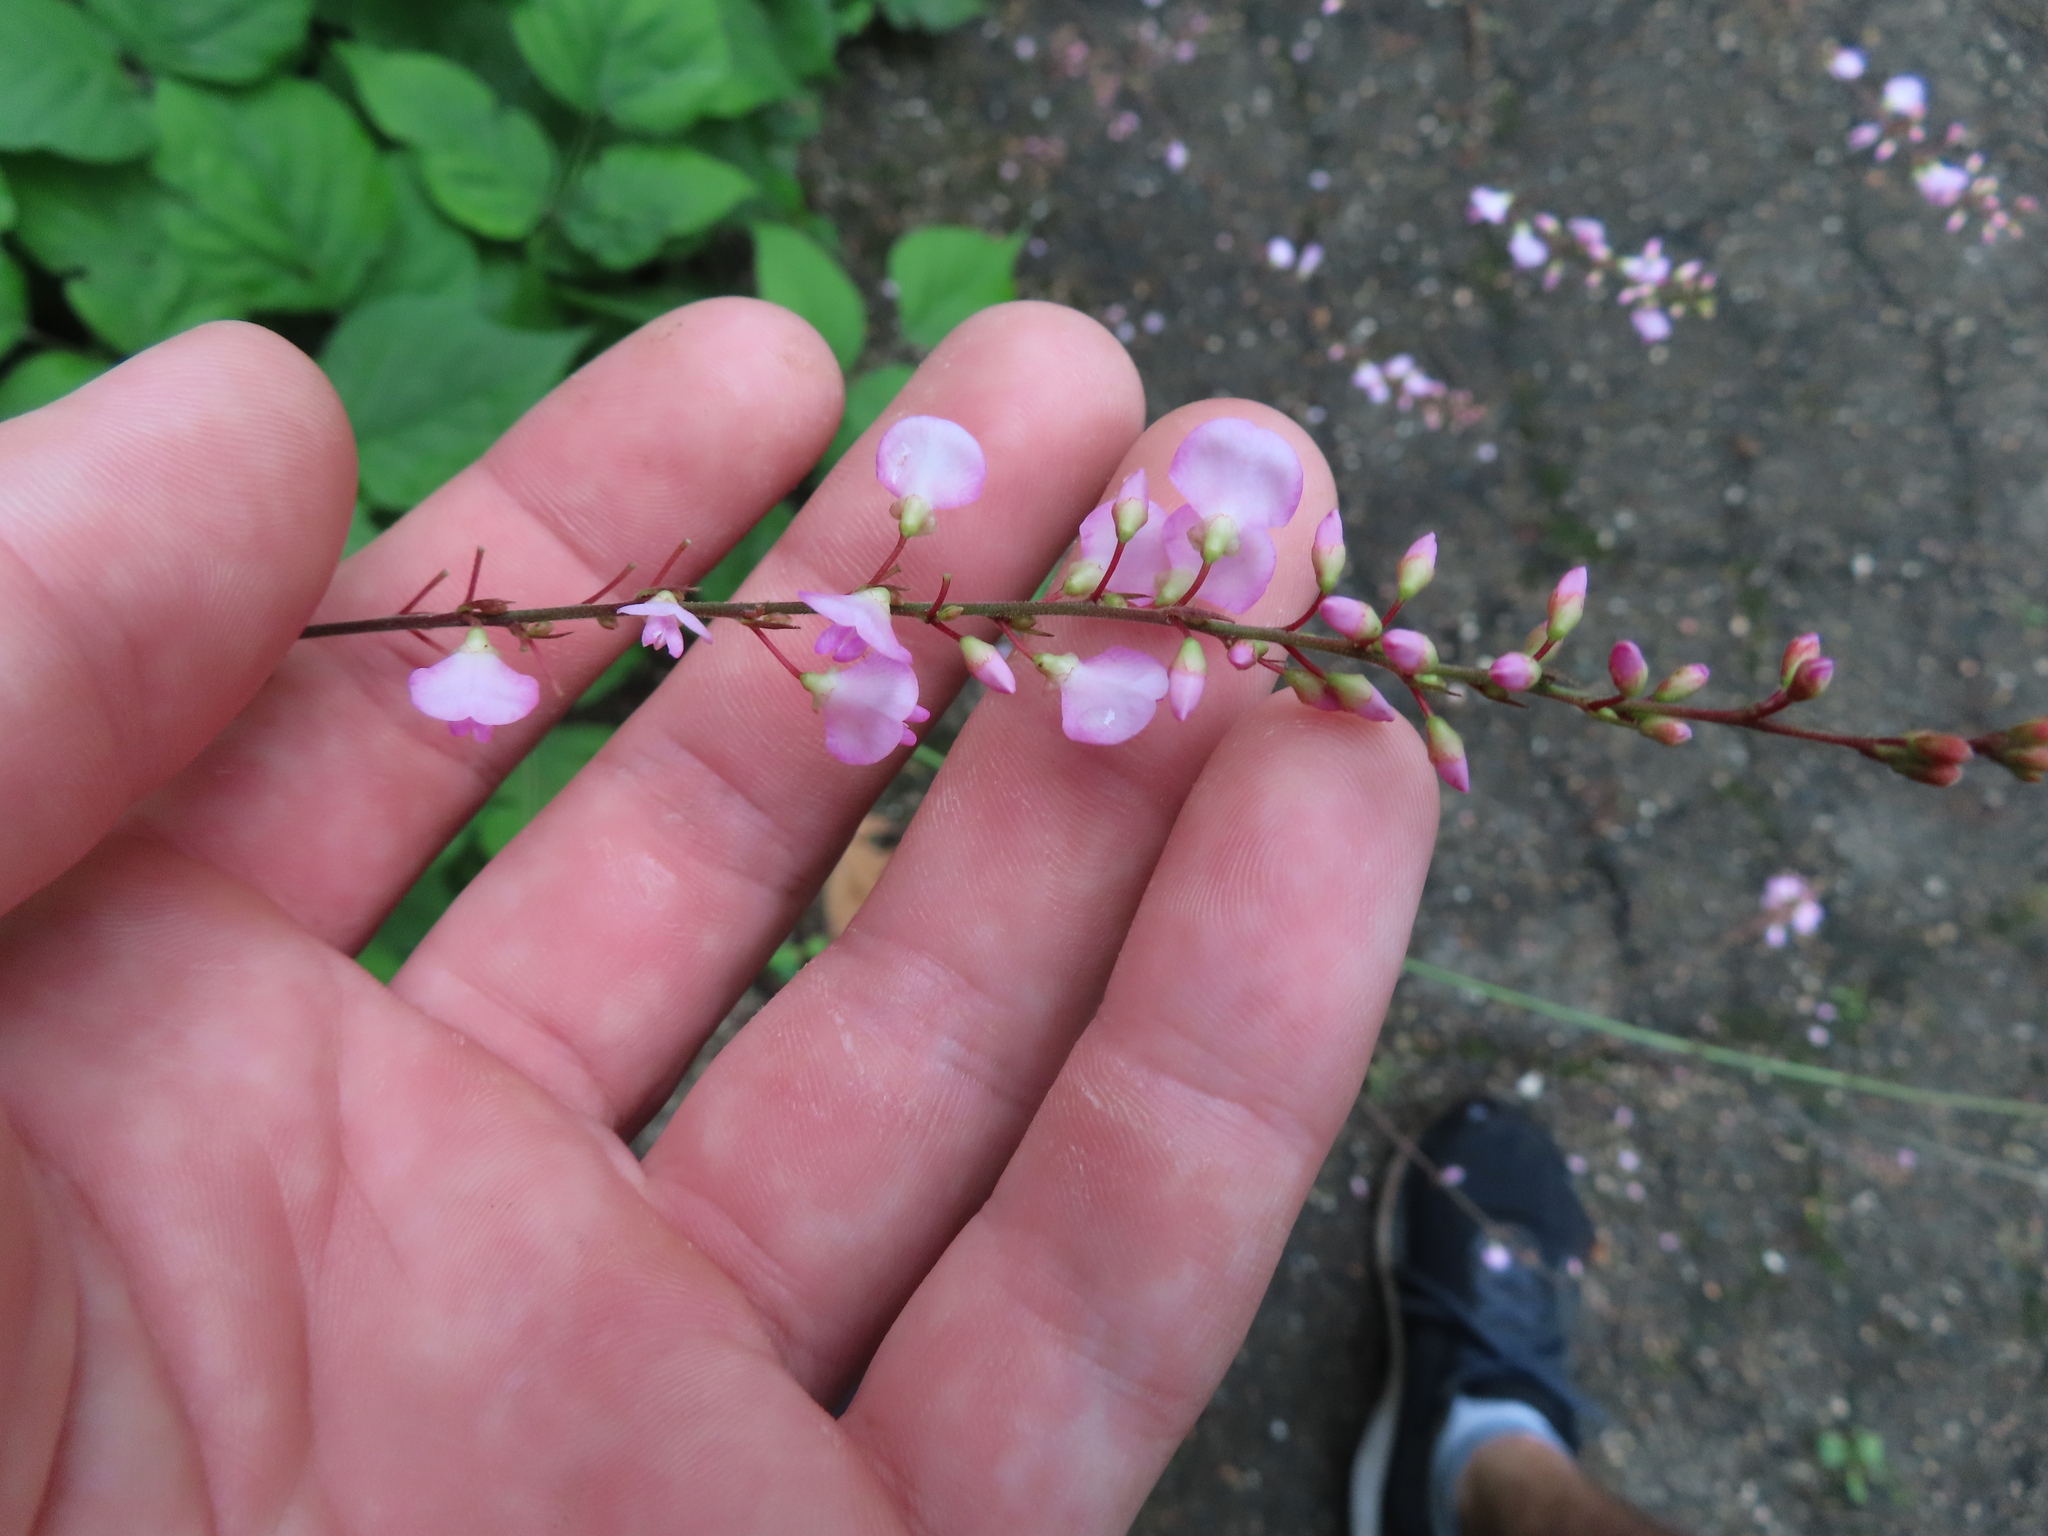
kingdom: Plantae
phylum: Tracheophyta
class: Magnoliopsida
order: Fabales
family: Fabaceae
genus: Hylodesmum
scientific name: Hylodesmum glutinosum
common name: Clustered-leaved tick-trefoil
